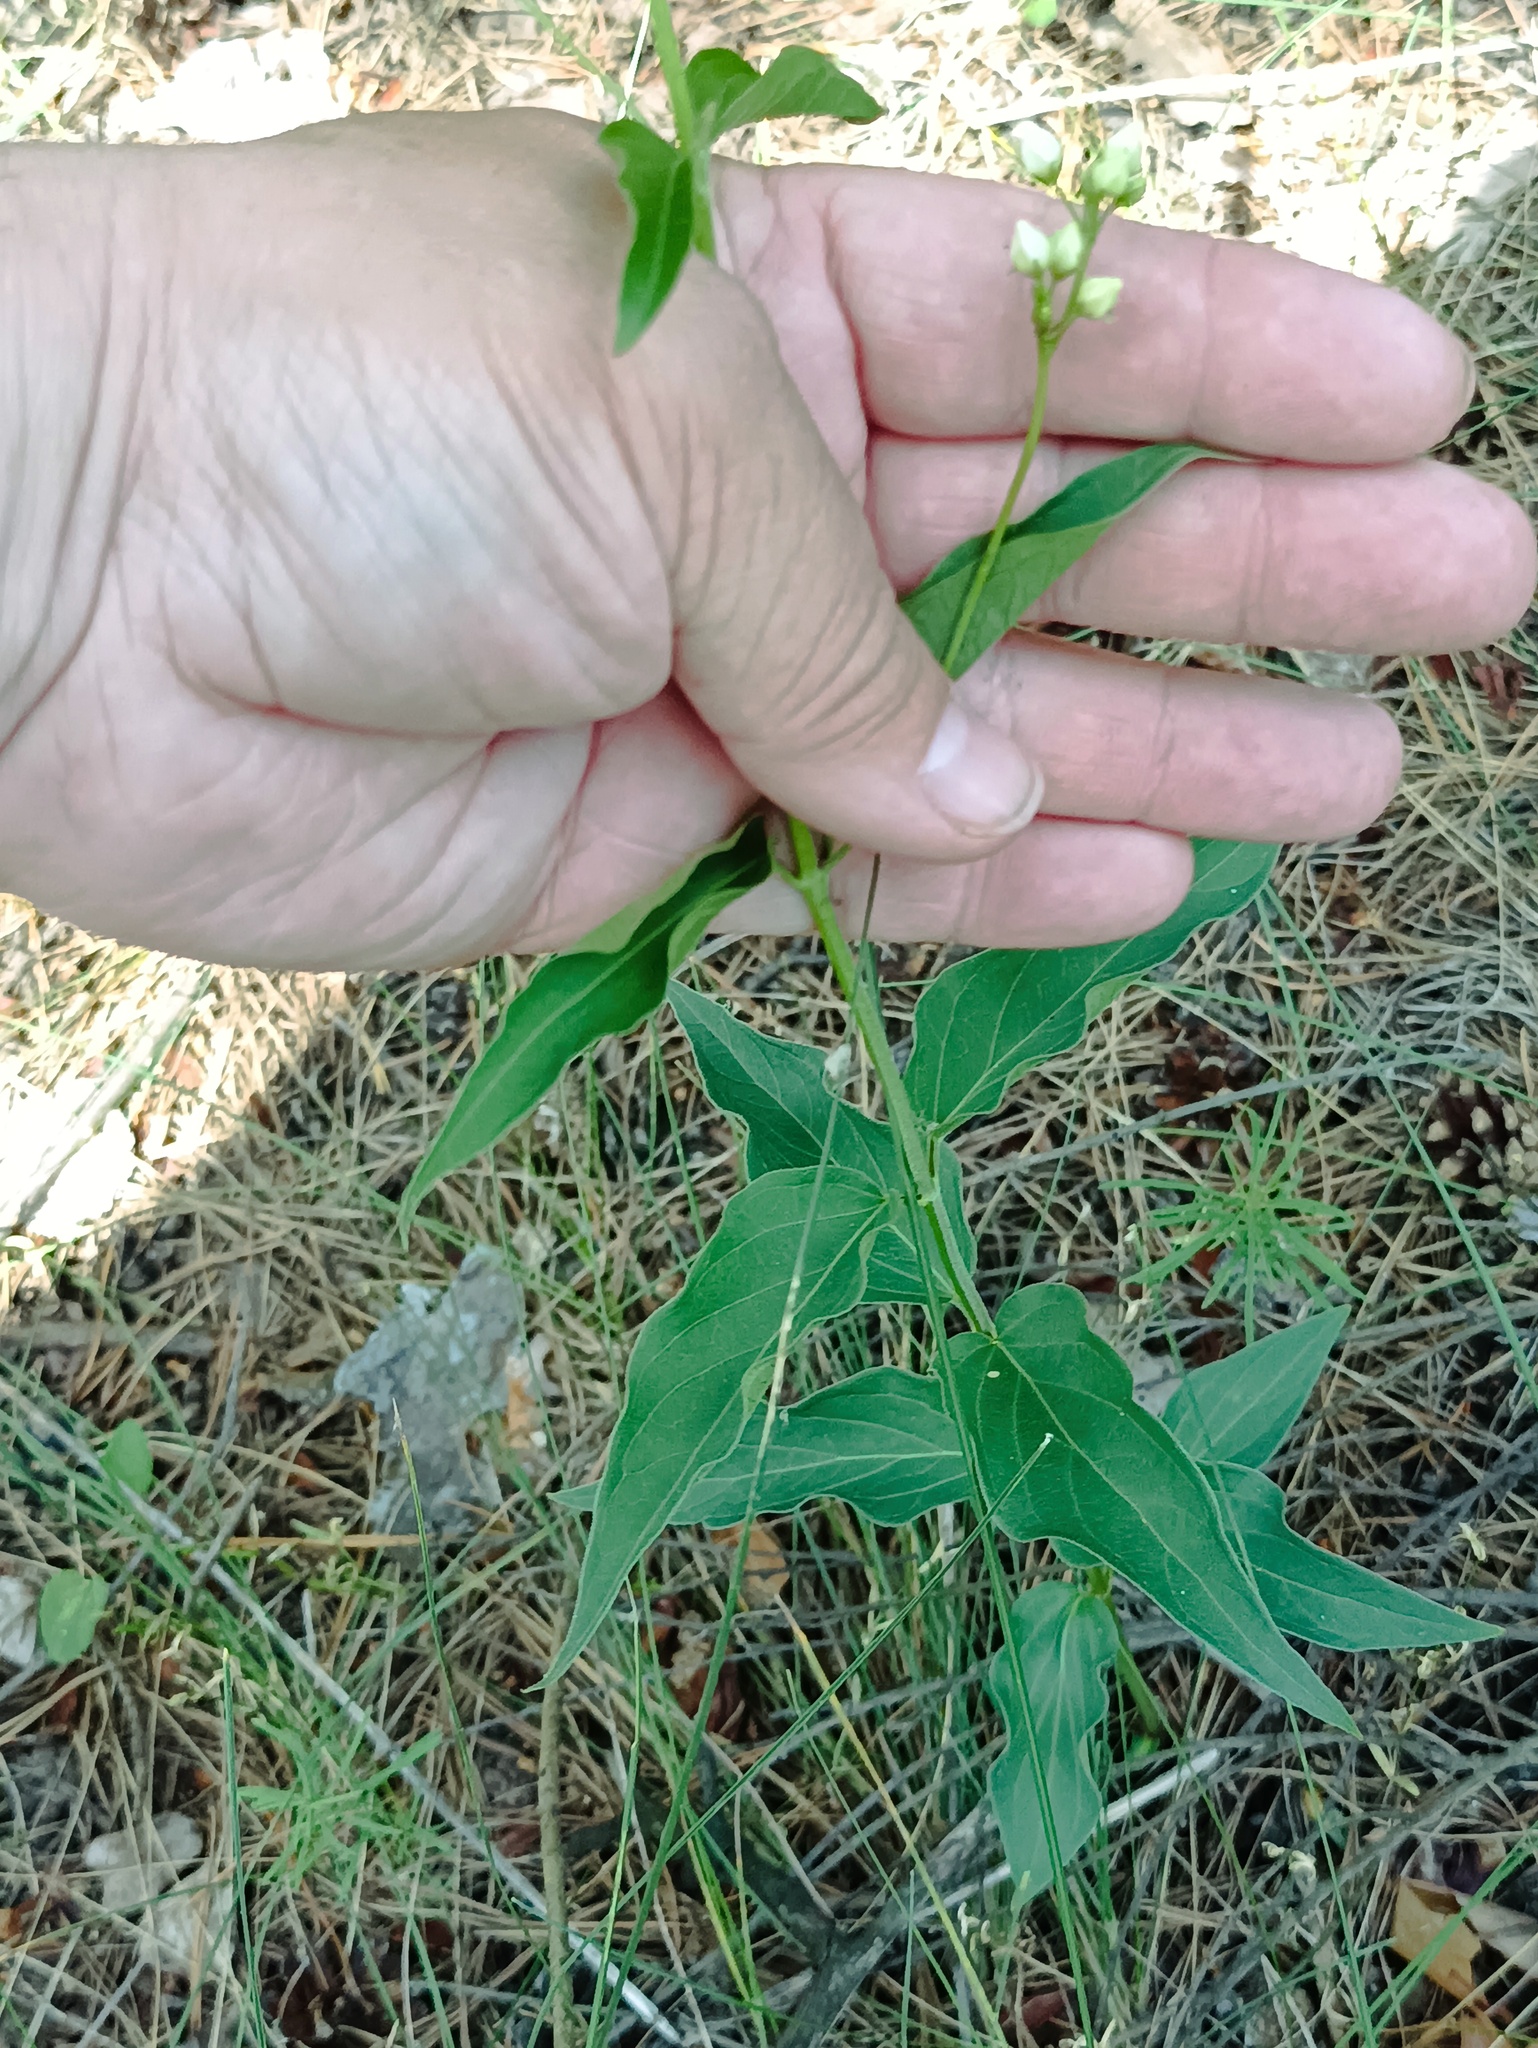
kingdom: Plantae
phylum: Tracheophyta
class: Magnoliopsida
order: Gentianales
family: Apocynaceae
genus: Vincetoxicum
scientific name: Vincetoxicum hirundinaria
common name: White swallowwort
